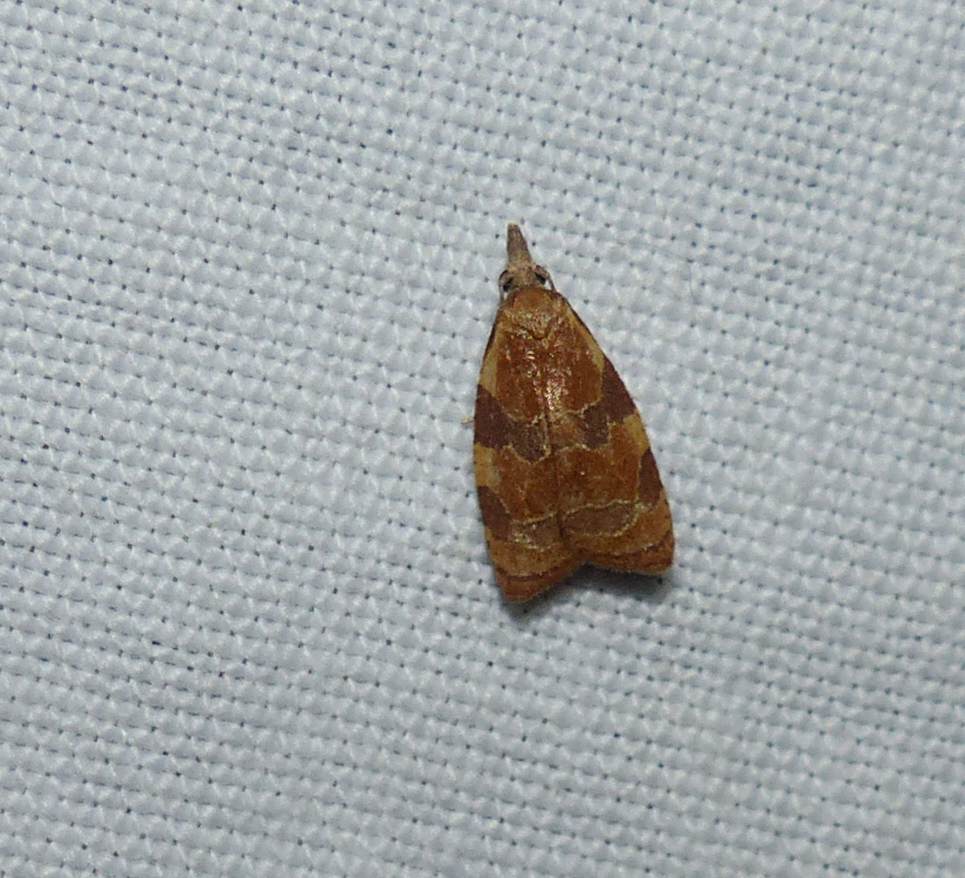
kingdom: Animalia
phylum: Arthropoda
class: Insecta
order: Lepidoptera
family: Tortricidae
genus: Cenopis
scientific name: Cenopis diluticostana
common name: Spring dead-leaf roller moth
